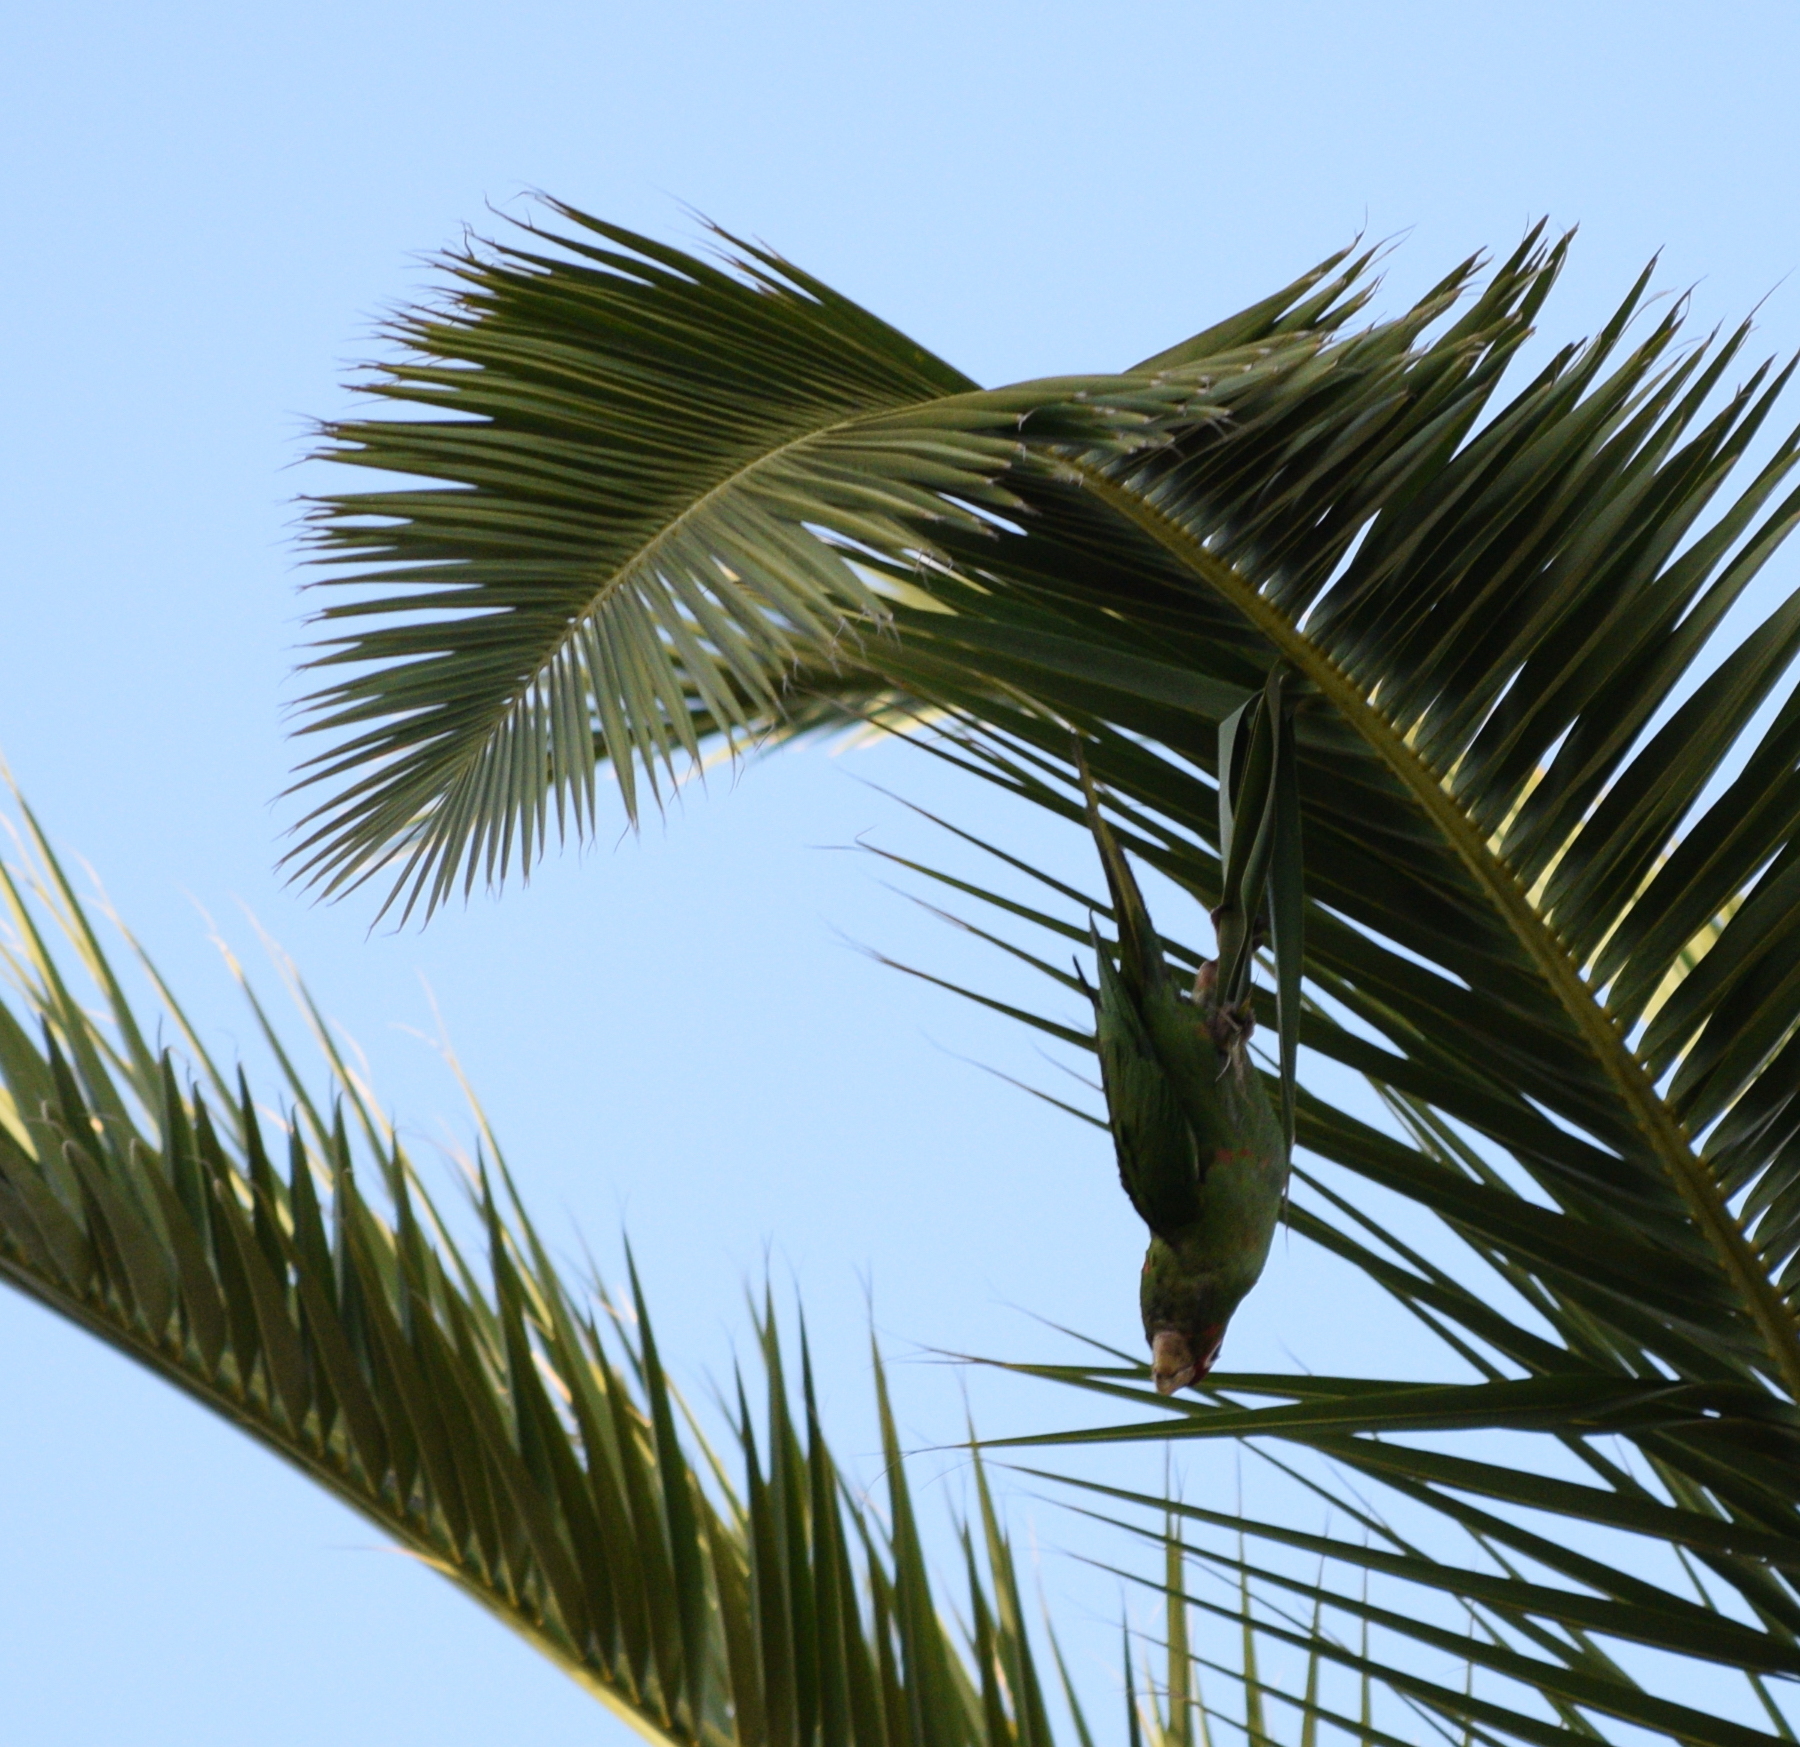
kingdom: Animalia
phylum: Chordata
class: Aves
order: Psittaciformes
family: Psittacidae
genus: Aratinga
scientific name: Aratinga mitrata
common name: Mitred parakeet
